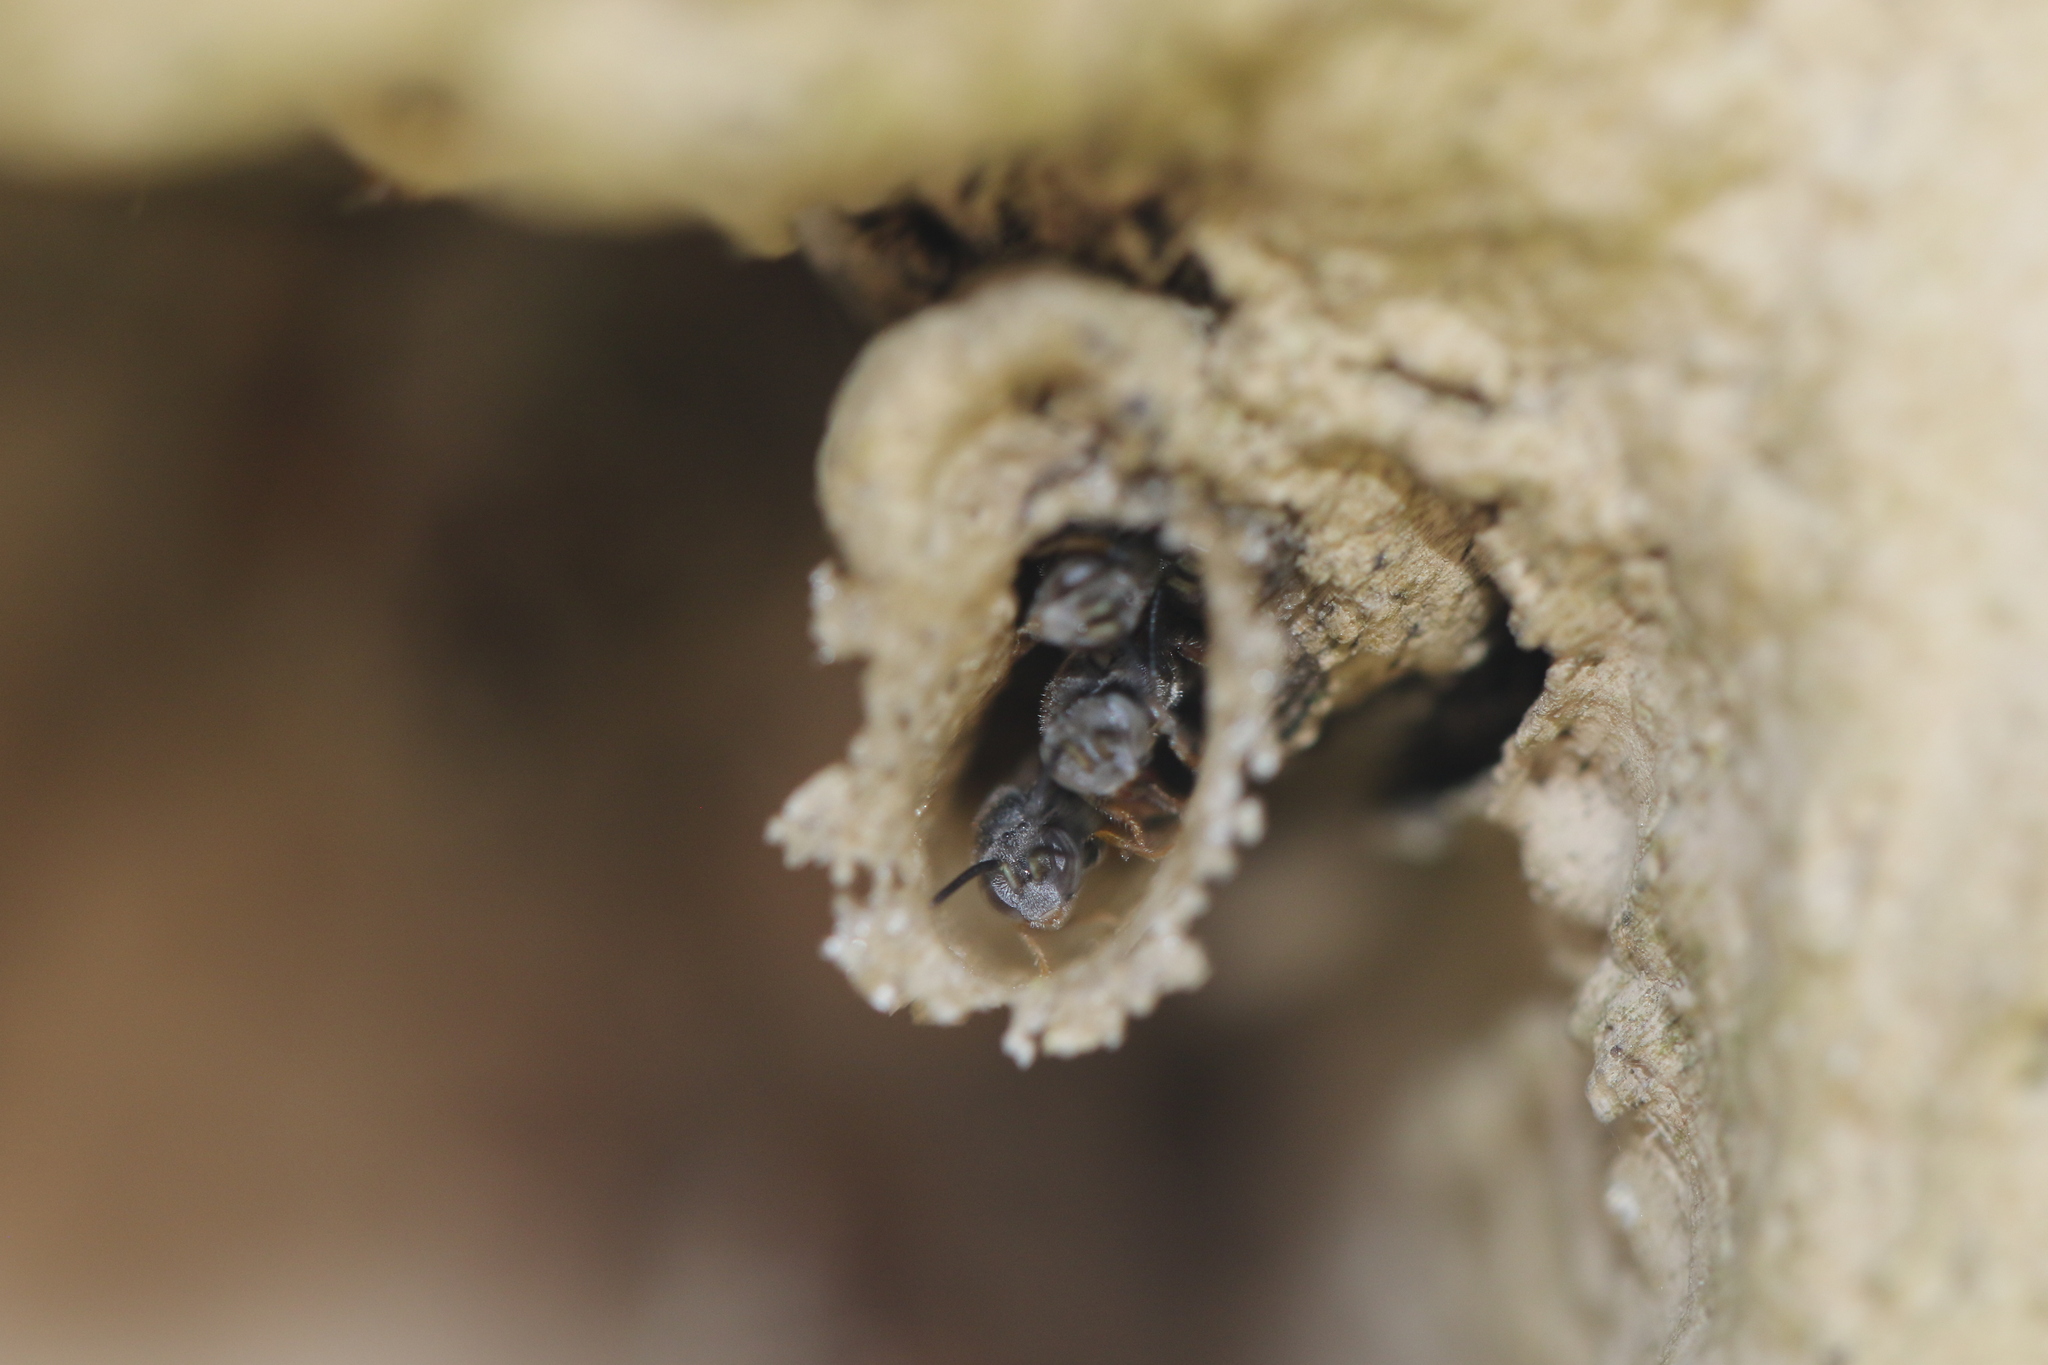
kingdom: Animalia
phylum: Arthropoda
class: Insecta
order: Hymenoptera
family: Apidae
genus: Friesella
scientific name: Friesella schrottkyi
